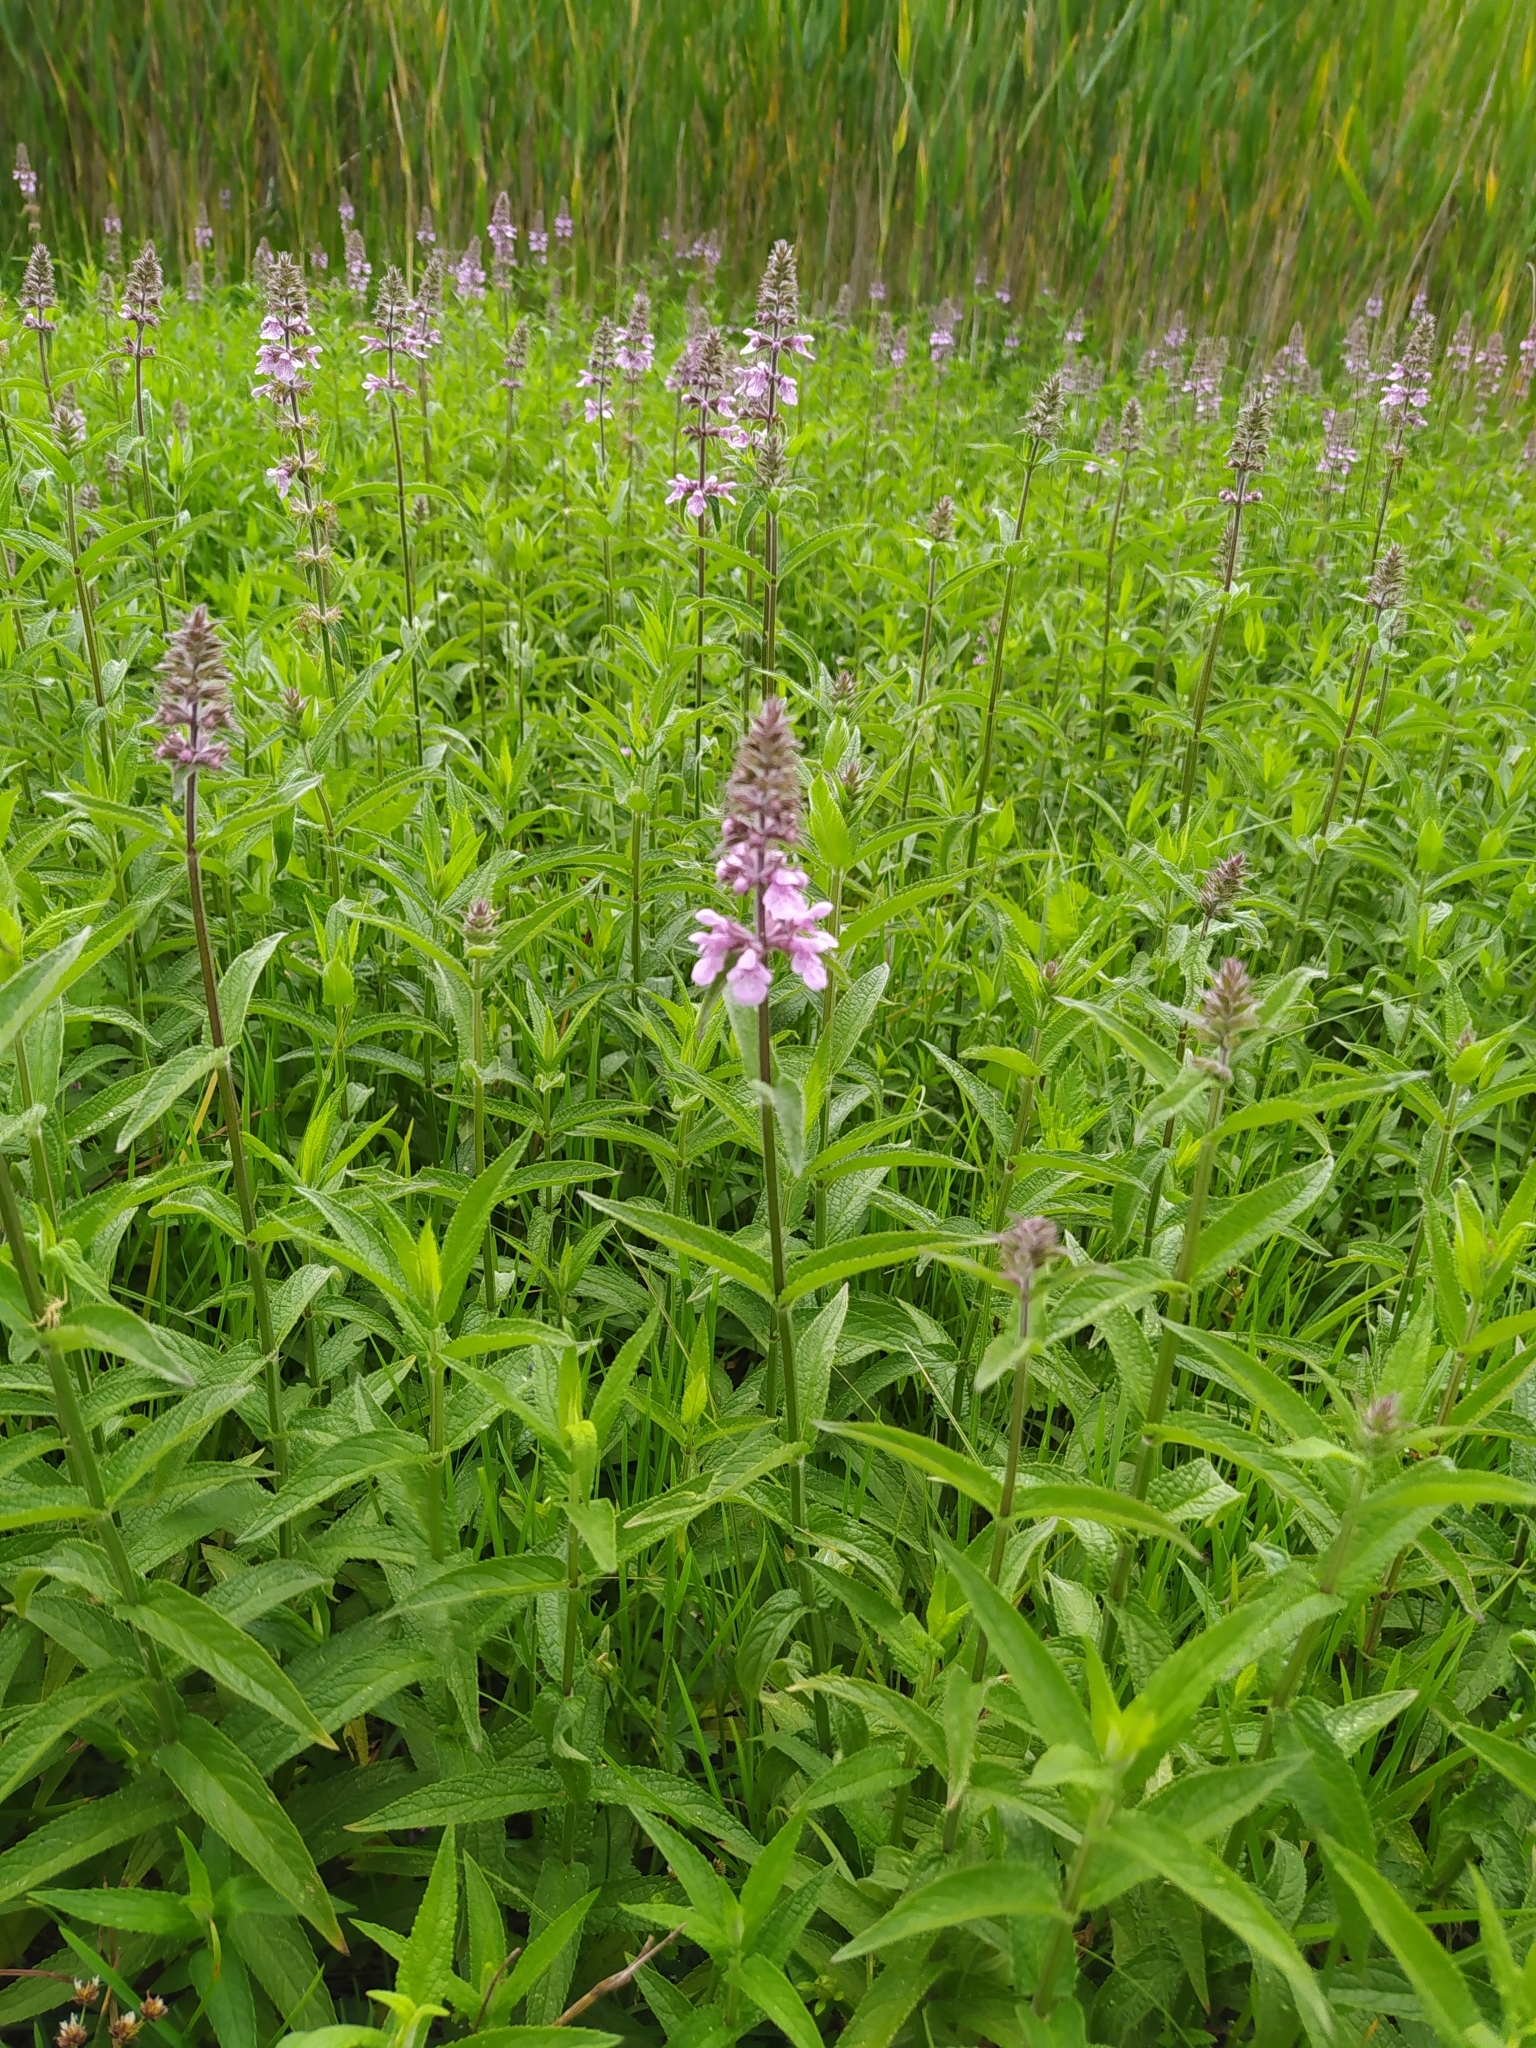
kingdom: Plantae
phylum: Tracheophyta
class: Magnoliopsida
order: Lamiales
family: Lamiaceae
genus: Stachys
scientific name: Stachys palustris
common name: Marsh woundwort
